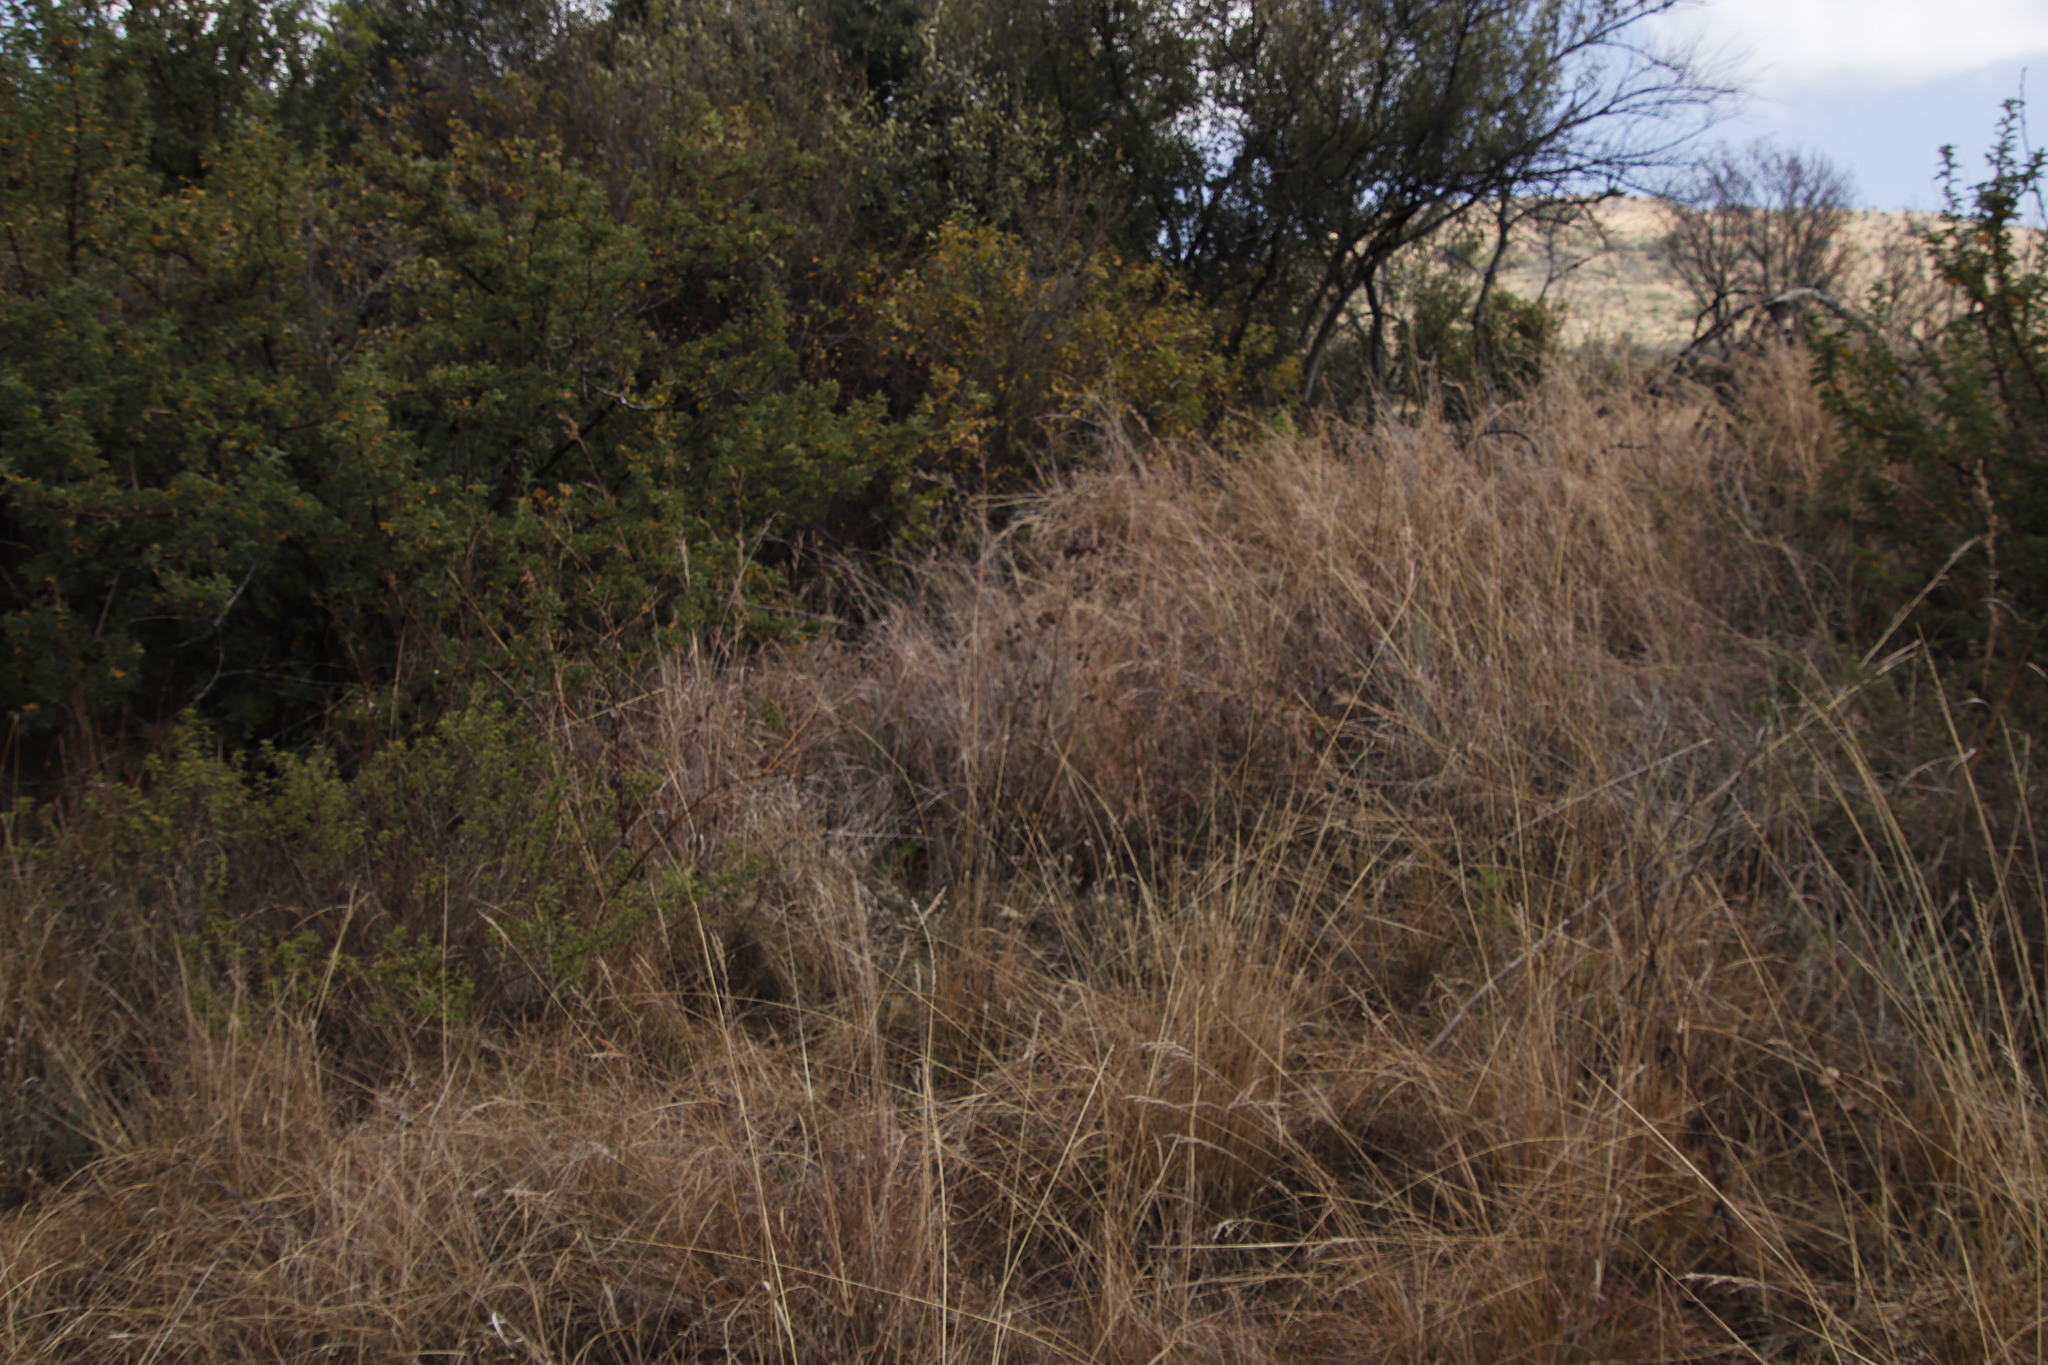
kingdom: Plantae
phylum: Tracheophyta
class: Magnoliopsida
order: Lamiales
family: Verbenaceae
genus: Verbena
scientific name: Verbena bonariensis
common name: Purpletop vervain
